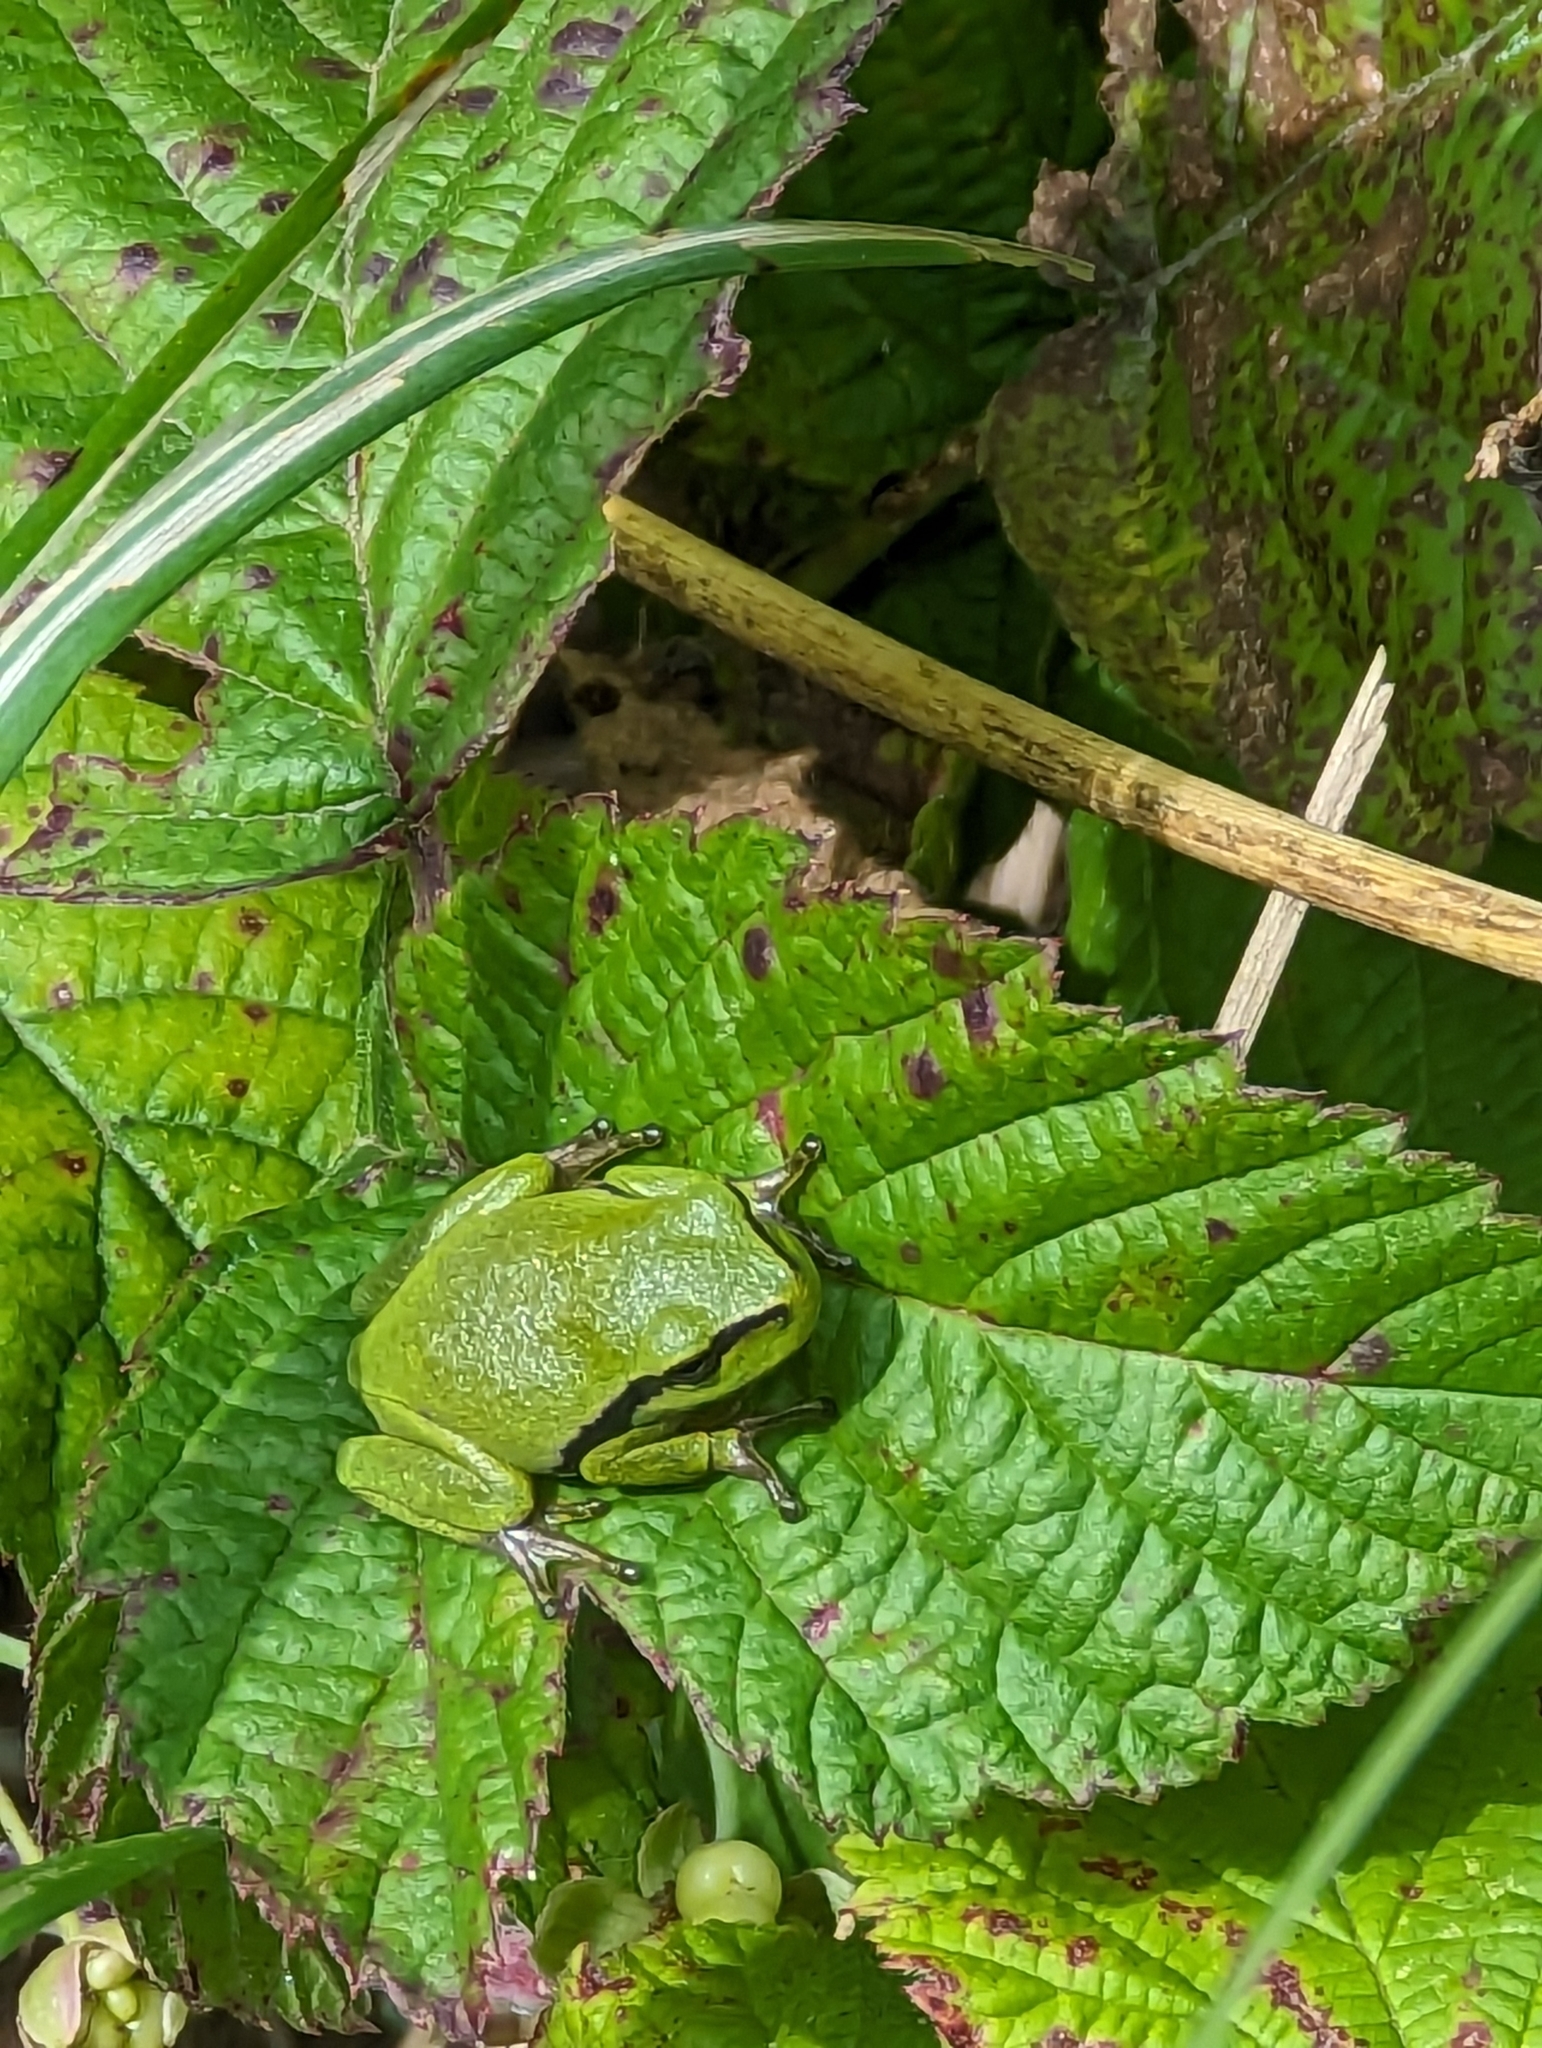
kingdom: Animalia
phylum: Chordata
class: Amphibia
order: Anura
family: Hylidae
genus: Hyla
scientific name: Hyla arborea
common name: Common tree frog
